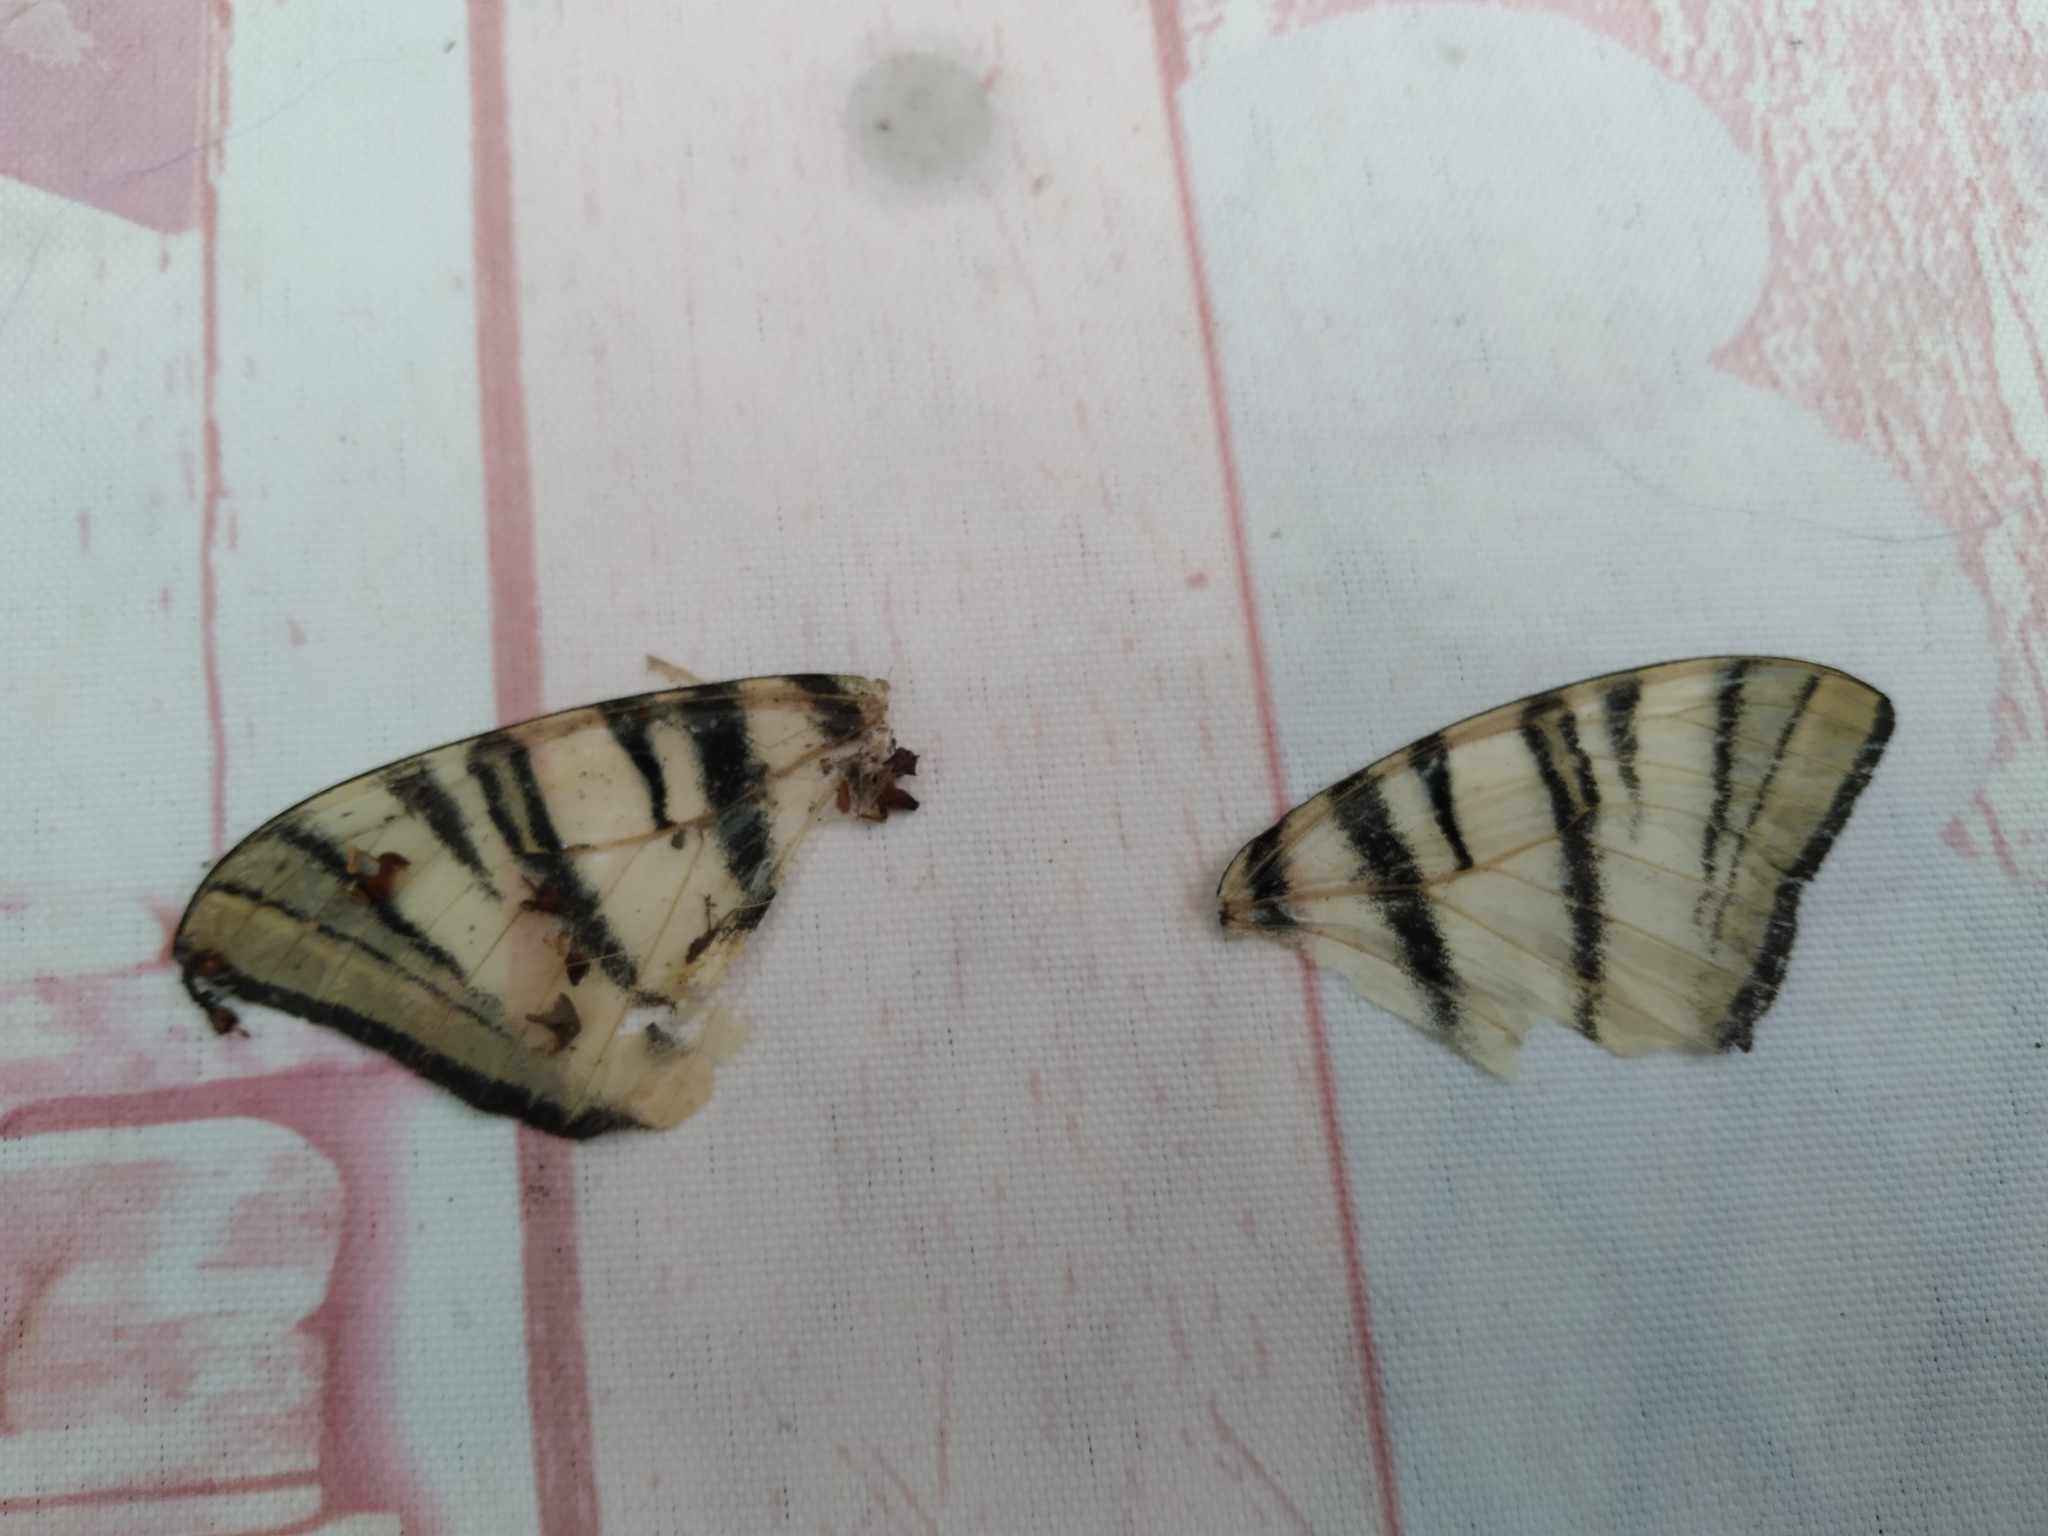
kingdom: Animalia
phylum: Arthropoda
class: Insecta
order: Lepidoptera
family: Papilionidae
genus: Iphiclides
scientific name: Iphiclides podalirius
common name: Scarce swallowtail
